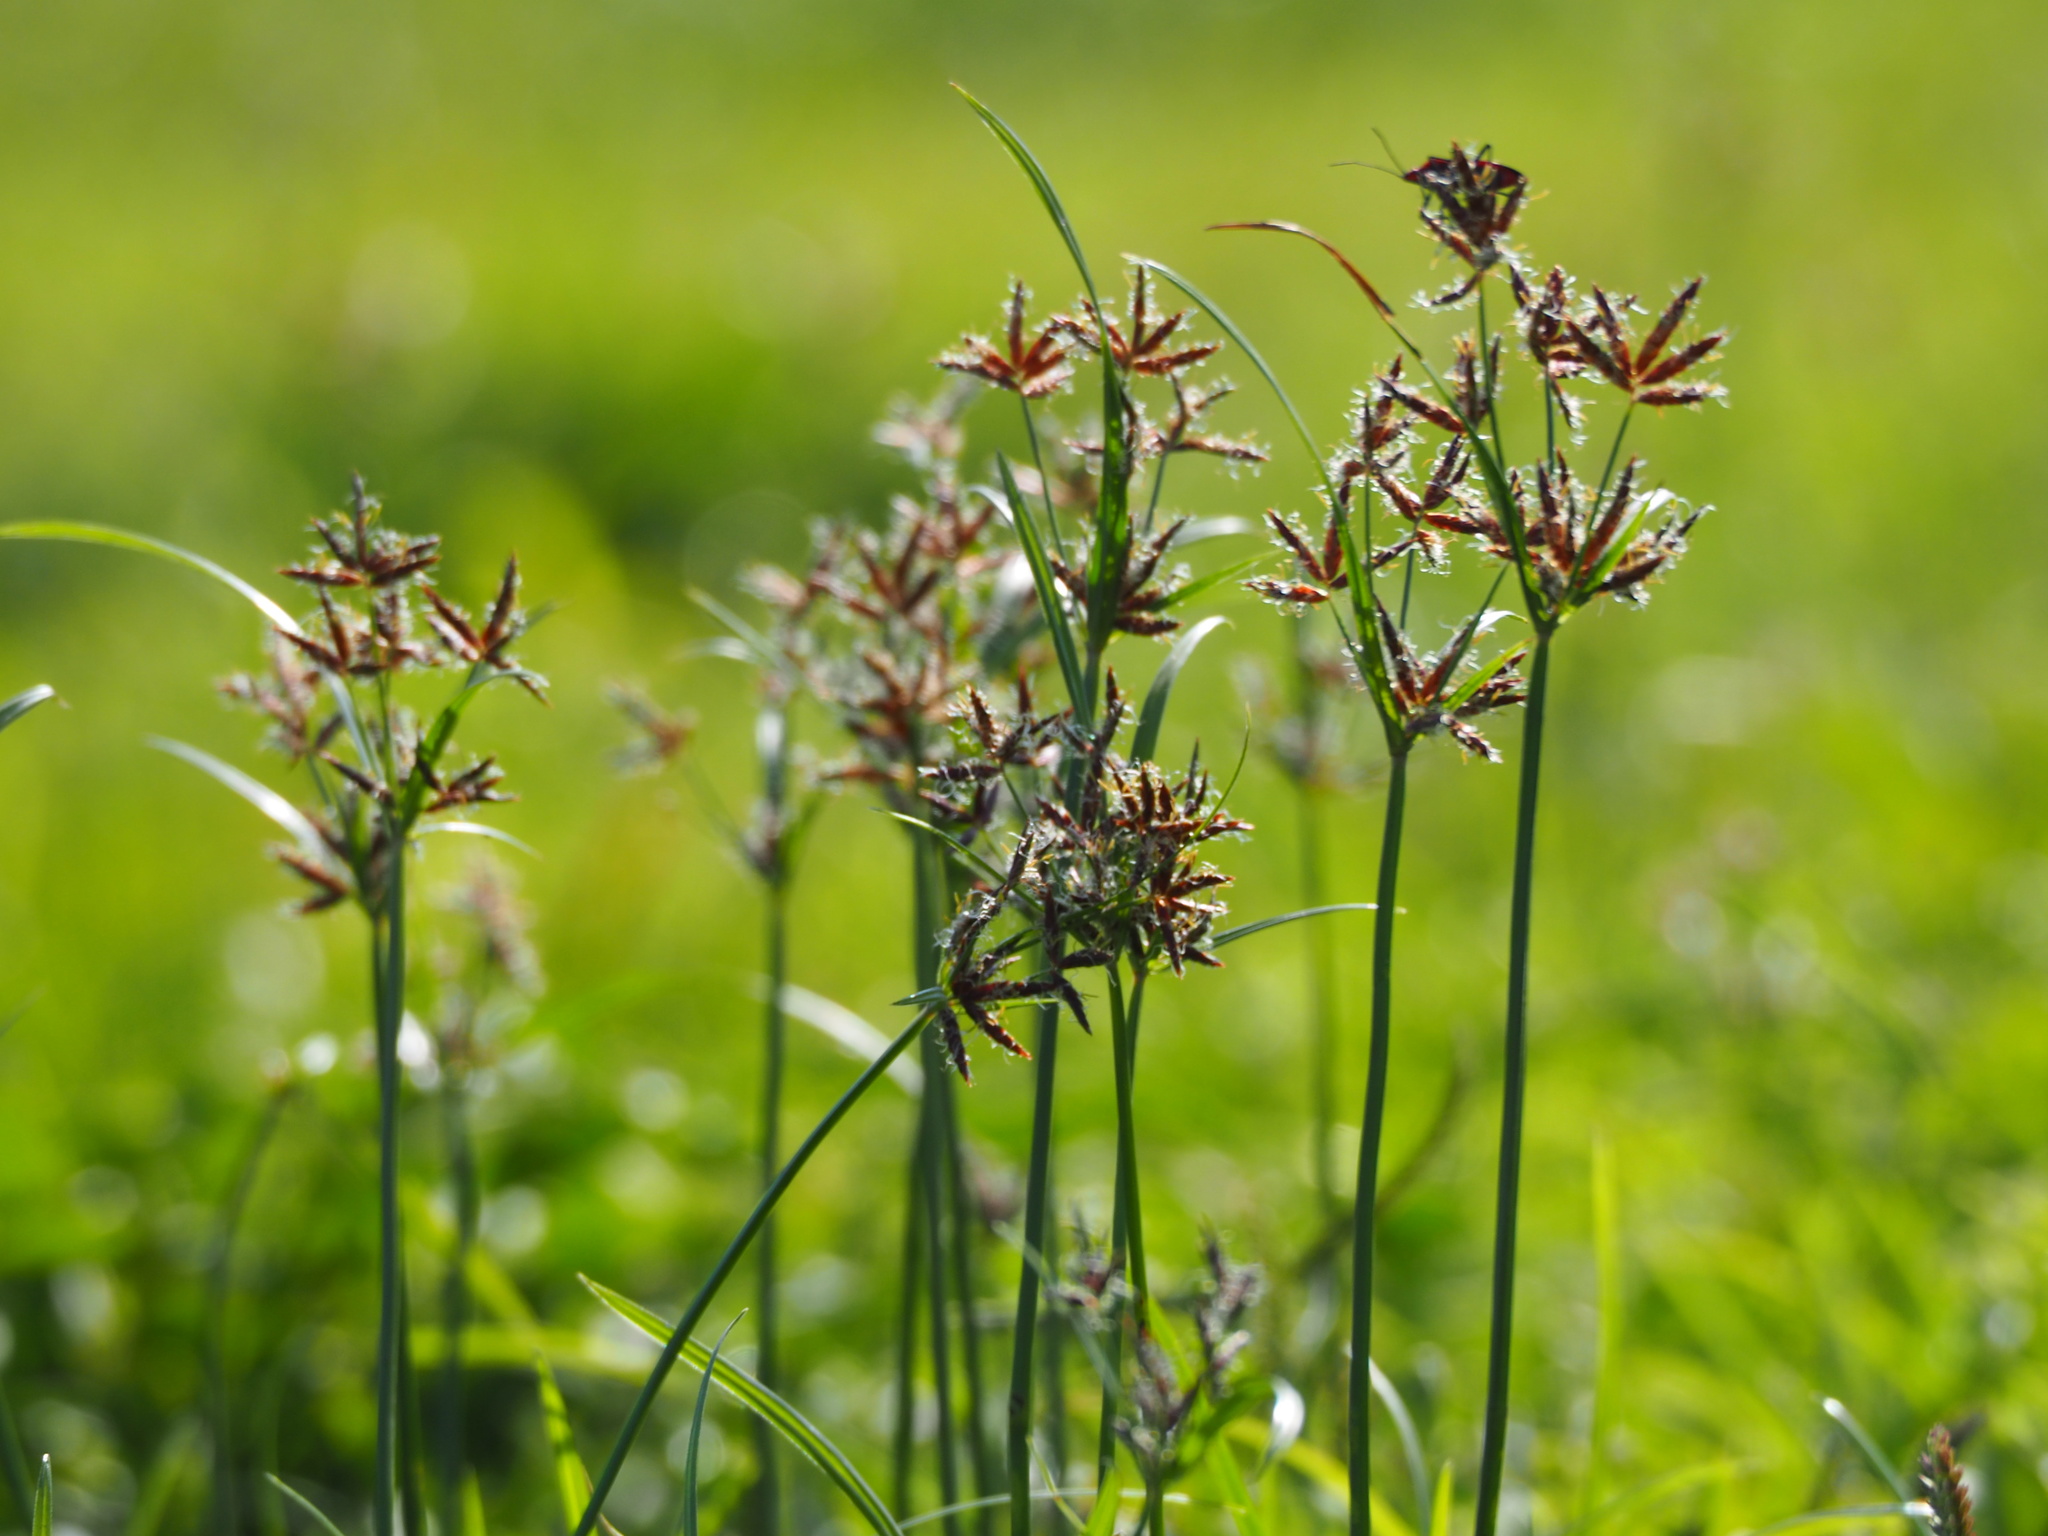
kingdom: Plantae
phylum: Tracheophyta
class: Liliopsida
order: Poales
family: Cyperaceae
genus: Cyperus
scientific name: Cyperus rotundus
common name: Nutgrass
